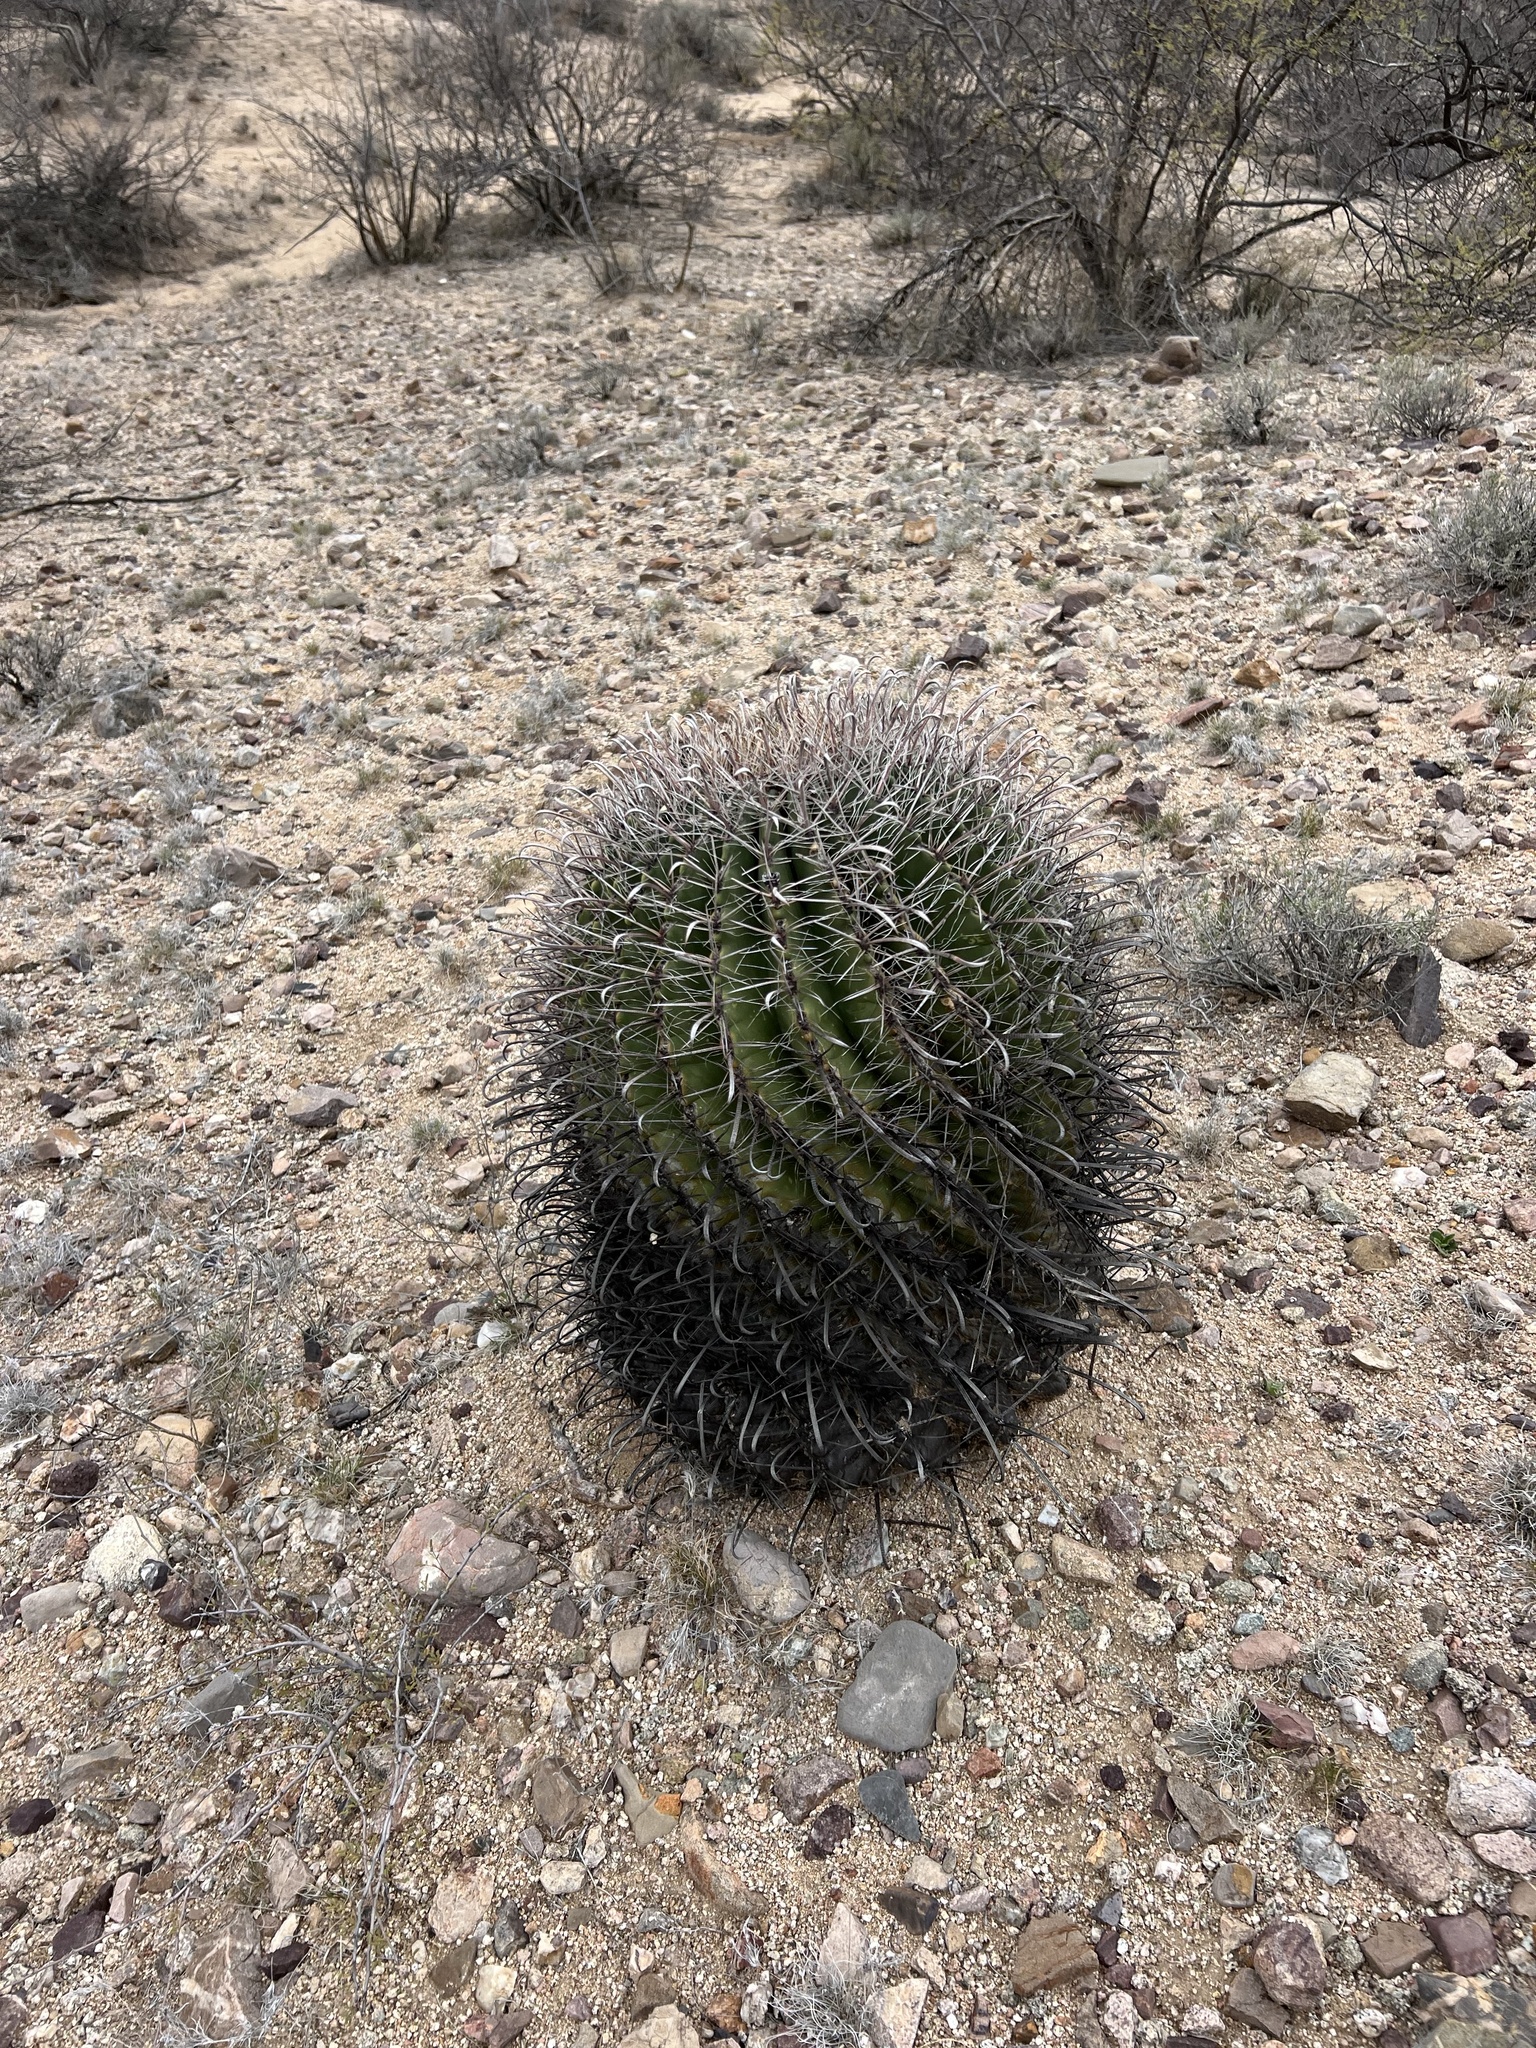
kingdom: Plantae
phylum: Tracheophyta
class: Magnoliopsida
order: Caryophyllales
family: Cactaceae
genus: Ferocactus
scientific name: Ferocactus wislizeni
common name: Candy barrel cactus
